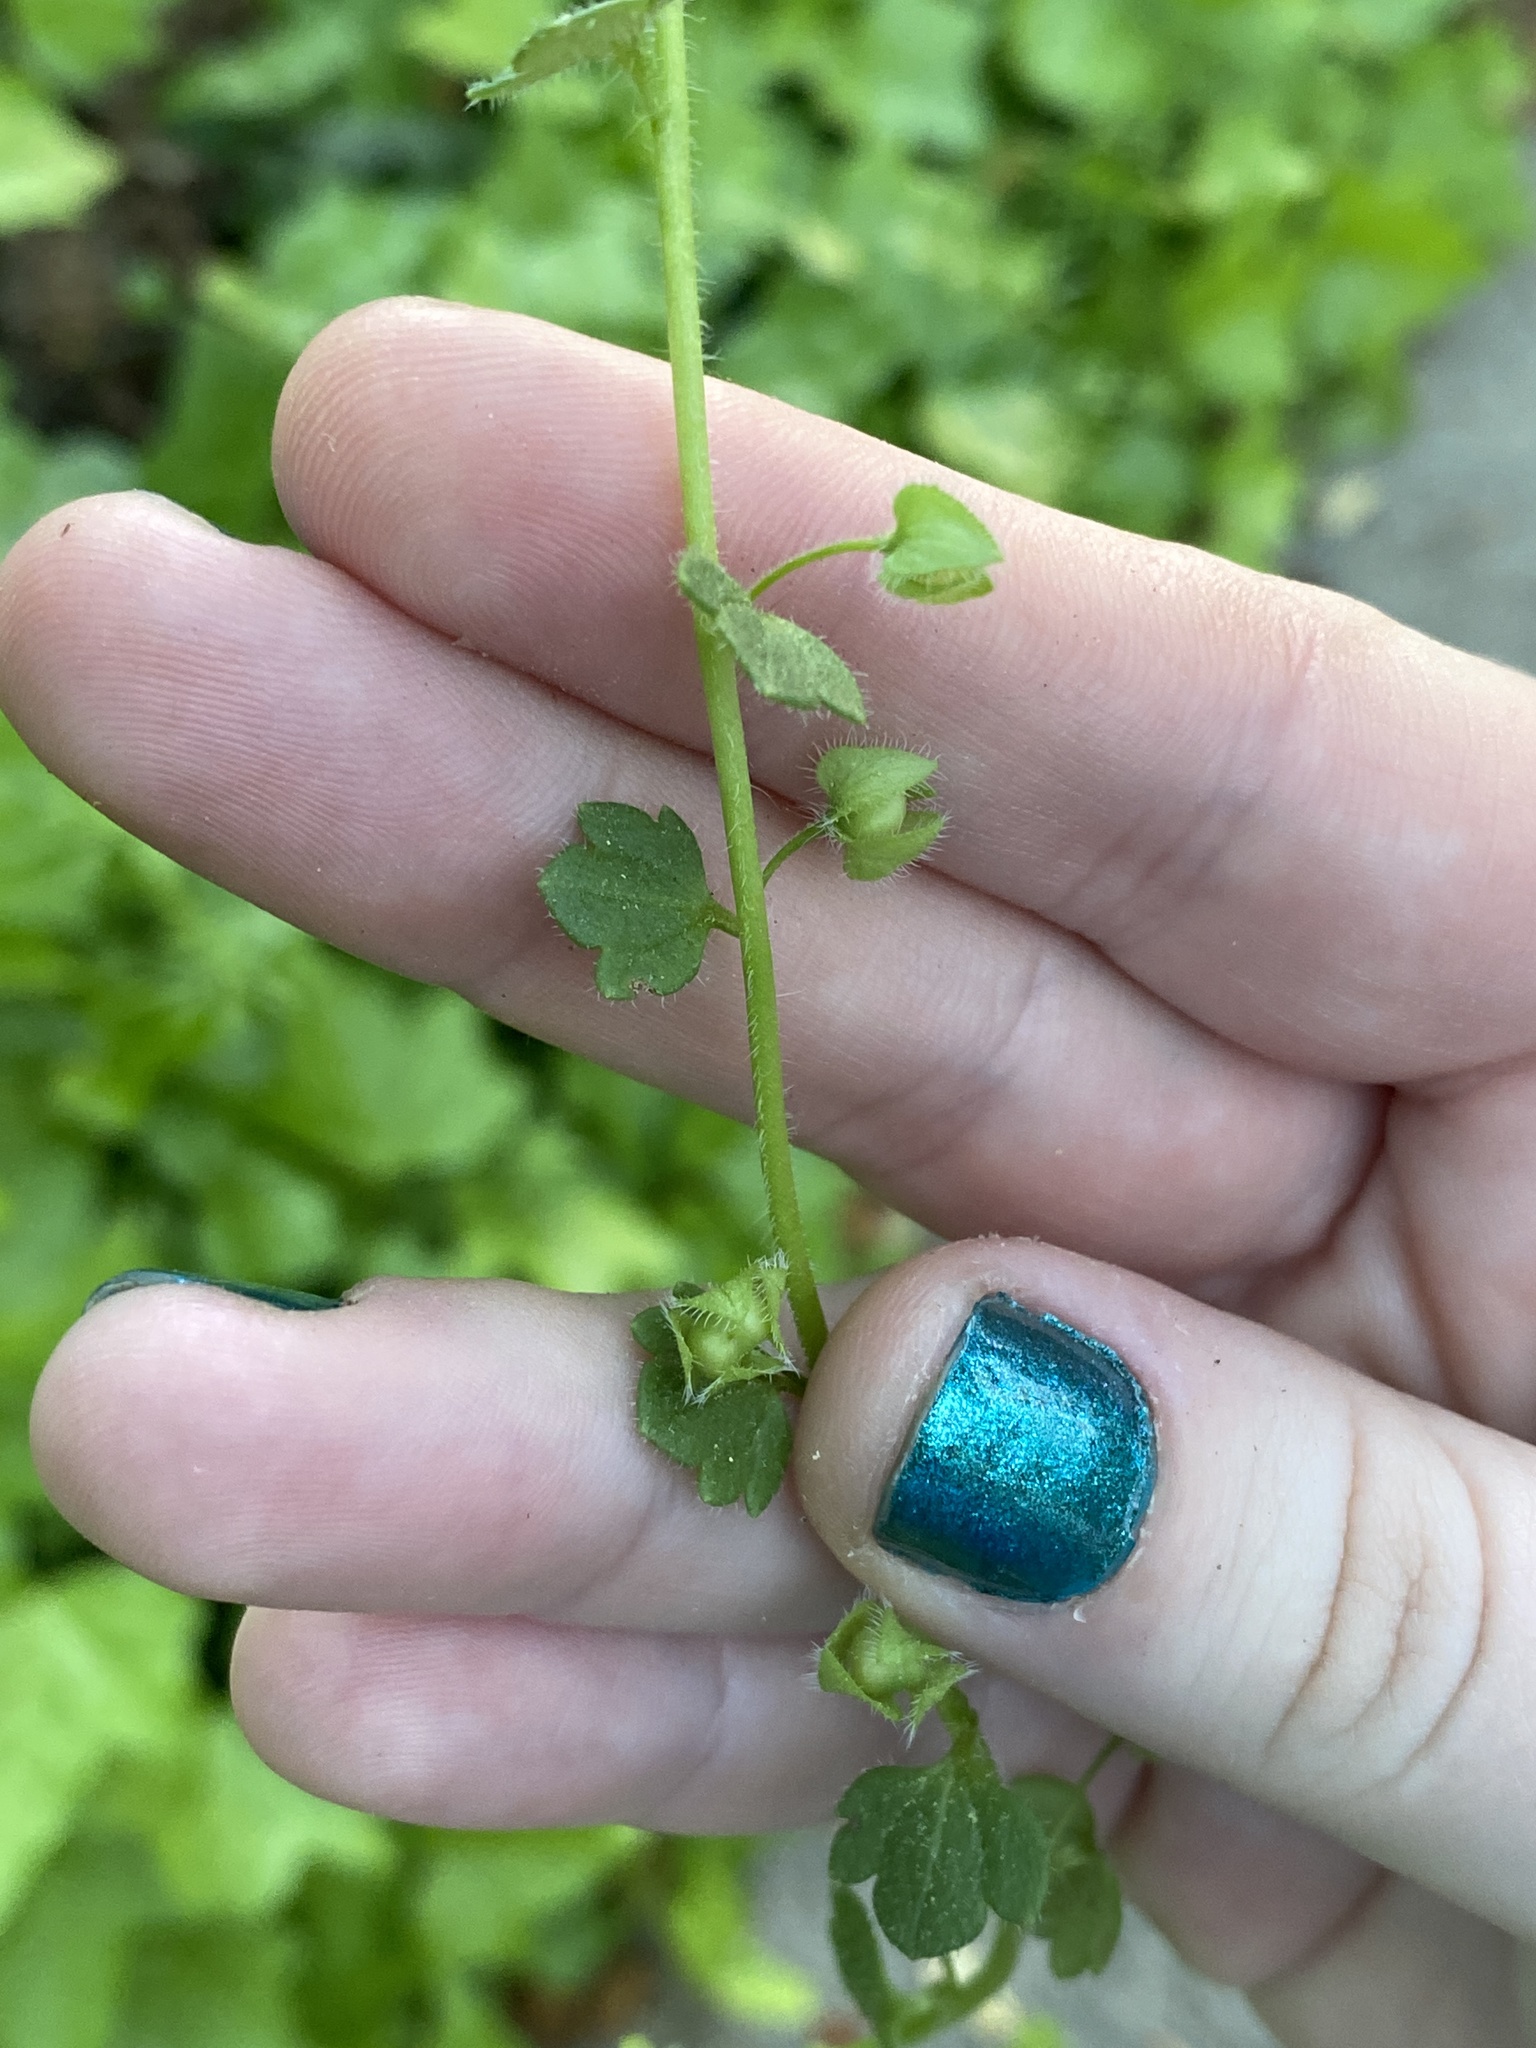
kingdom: Plantae
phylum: Tracheophyta
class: Magnoliopsida
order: Lamiales
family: Plantaginaceae
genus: Veronica
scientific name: Veronica hederifolia
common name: Ivy-leaved speedwell
